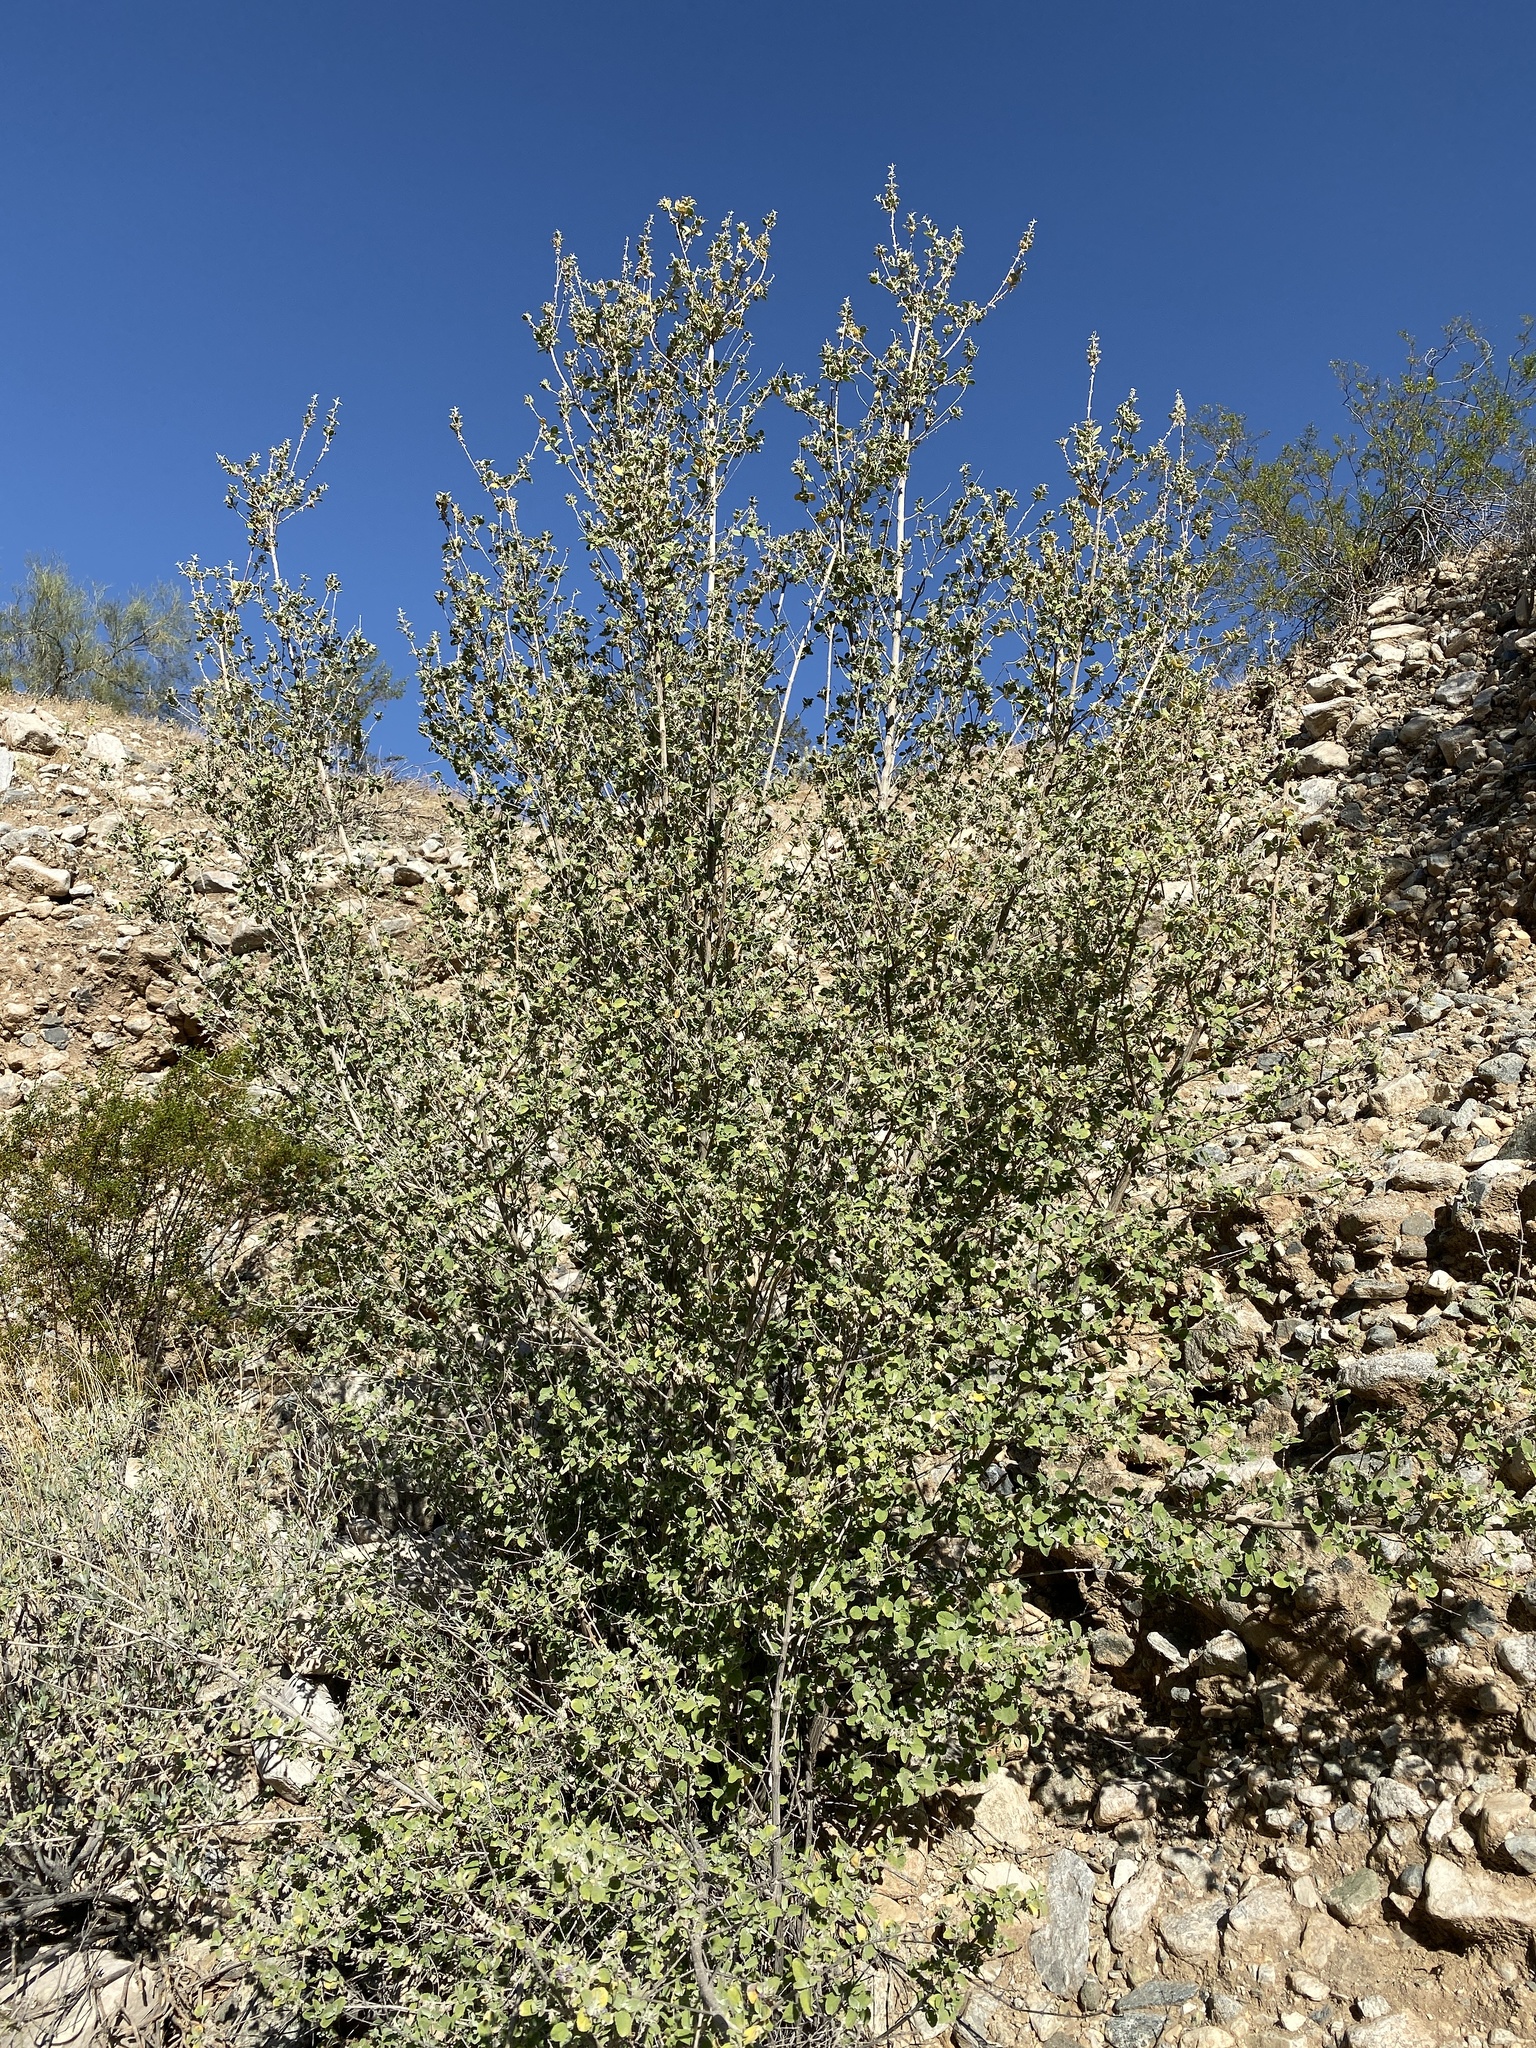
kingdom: Plantae
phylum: Tracheophyta
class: Magnoliopsida
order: Lamiales
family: Lamiaceae
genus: Condea
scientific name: Condea emoryi
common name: Chia
